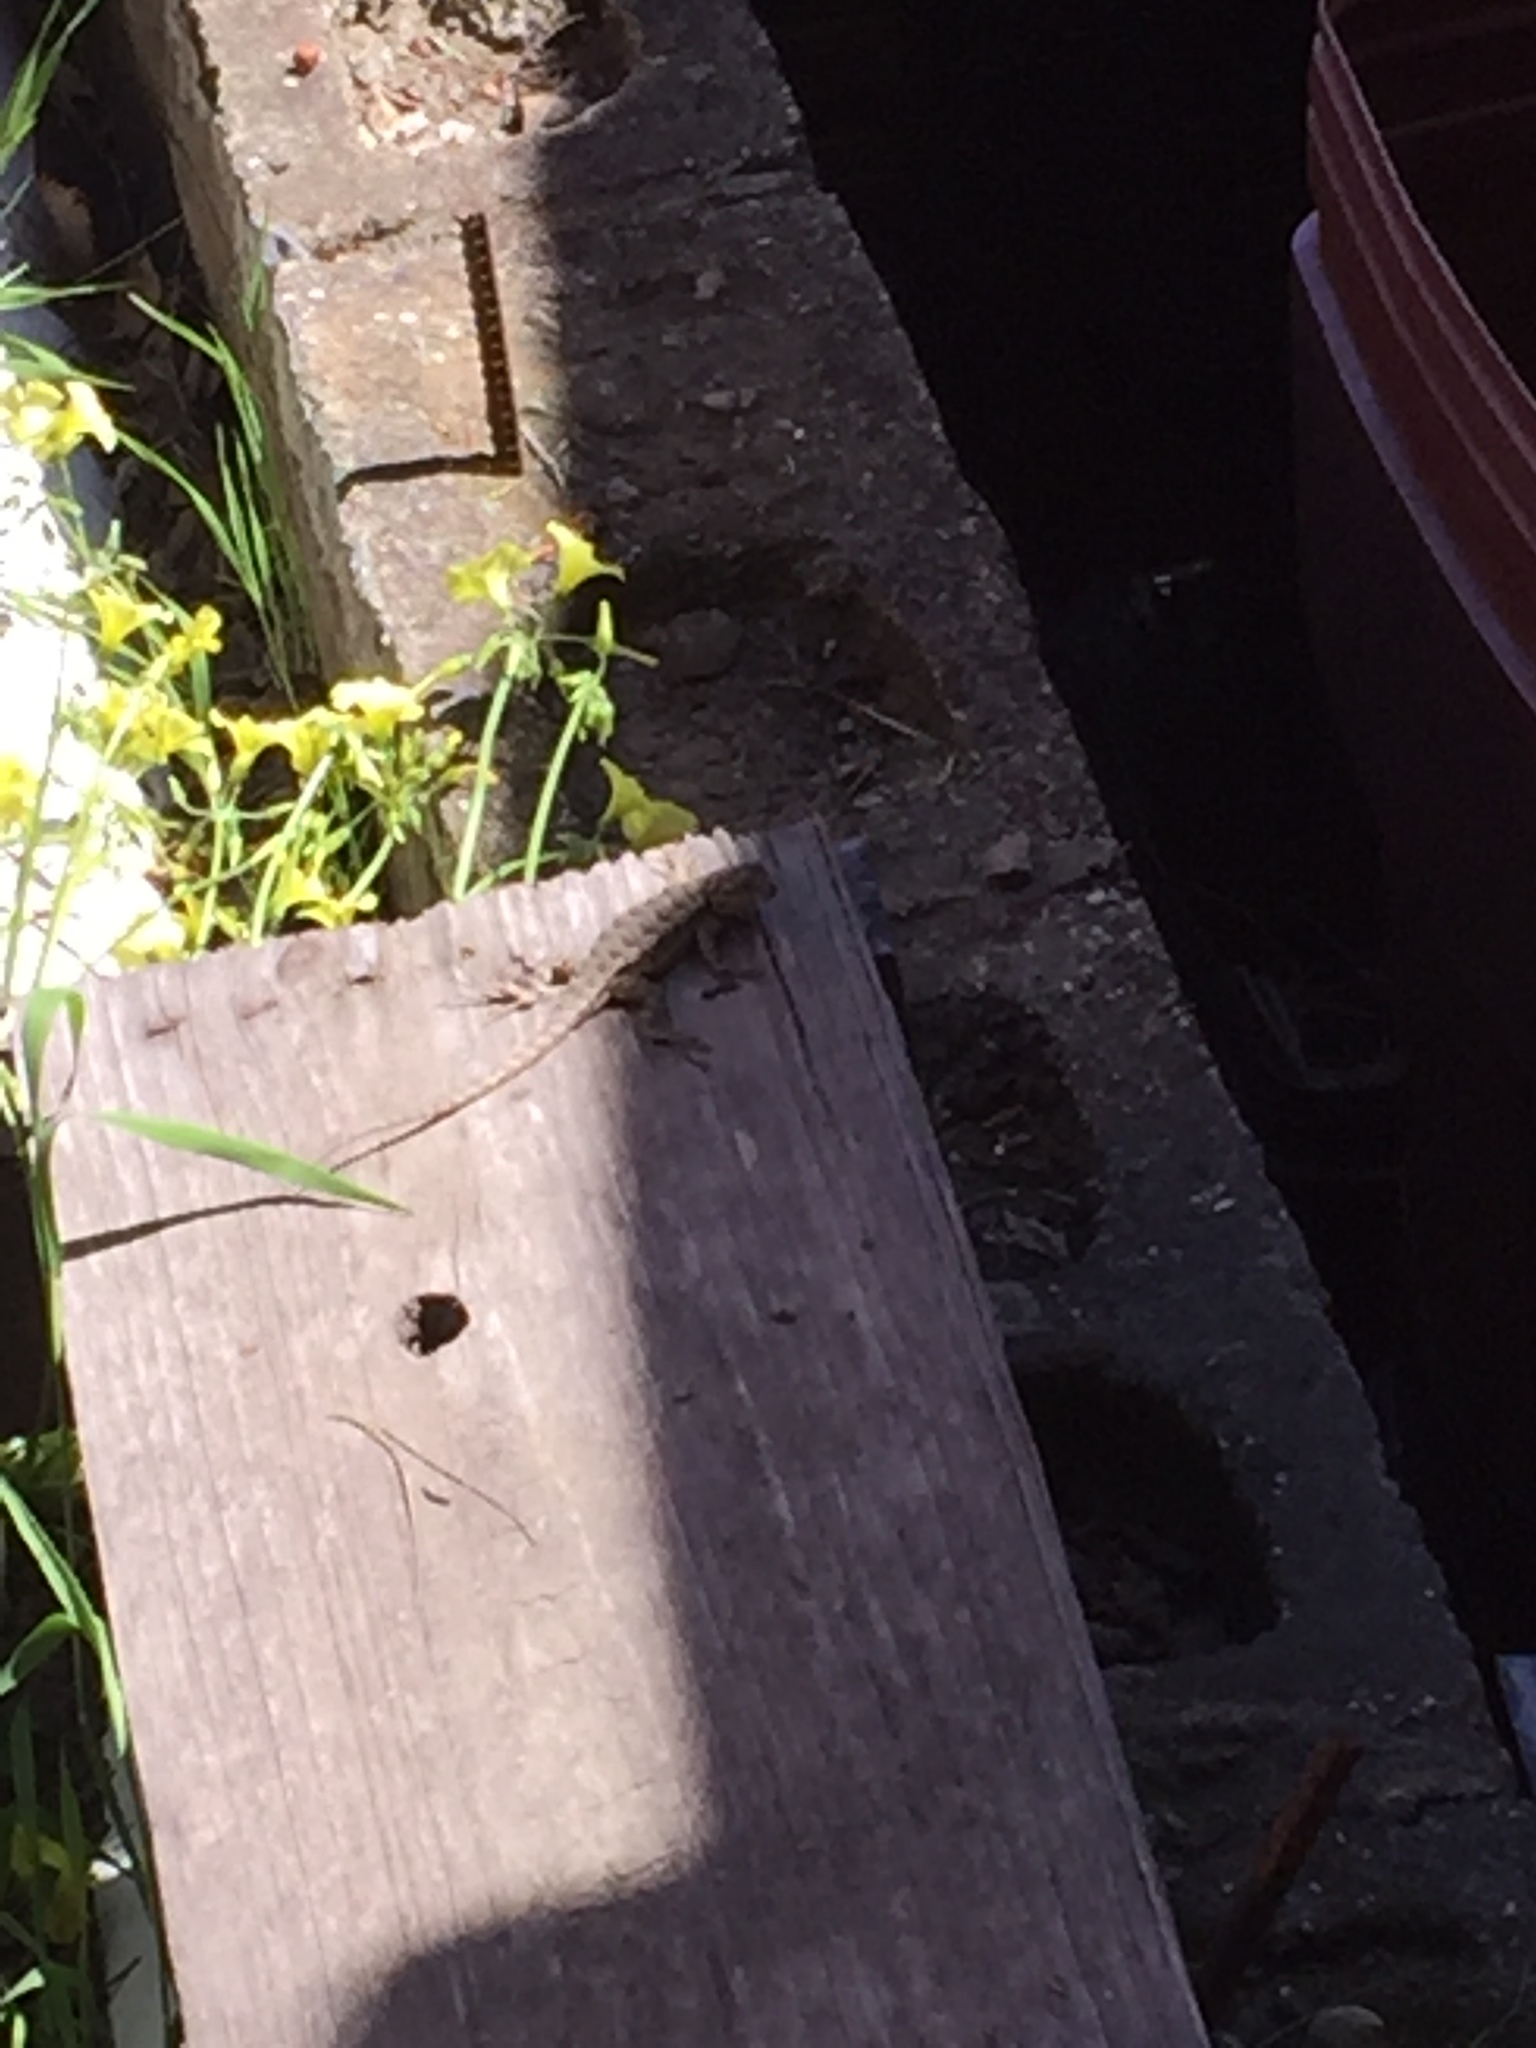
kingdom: Animalia
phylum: Chordata
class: Squamata
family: Phrynosomatidae
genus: Sceloporus
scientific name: Sceloporus occidentalis
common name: Western fence lizard
